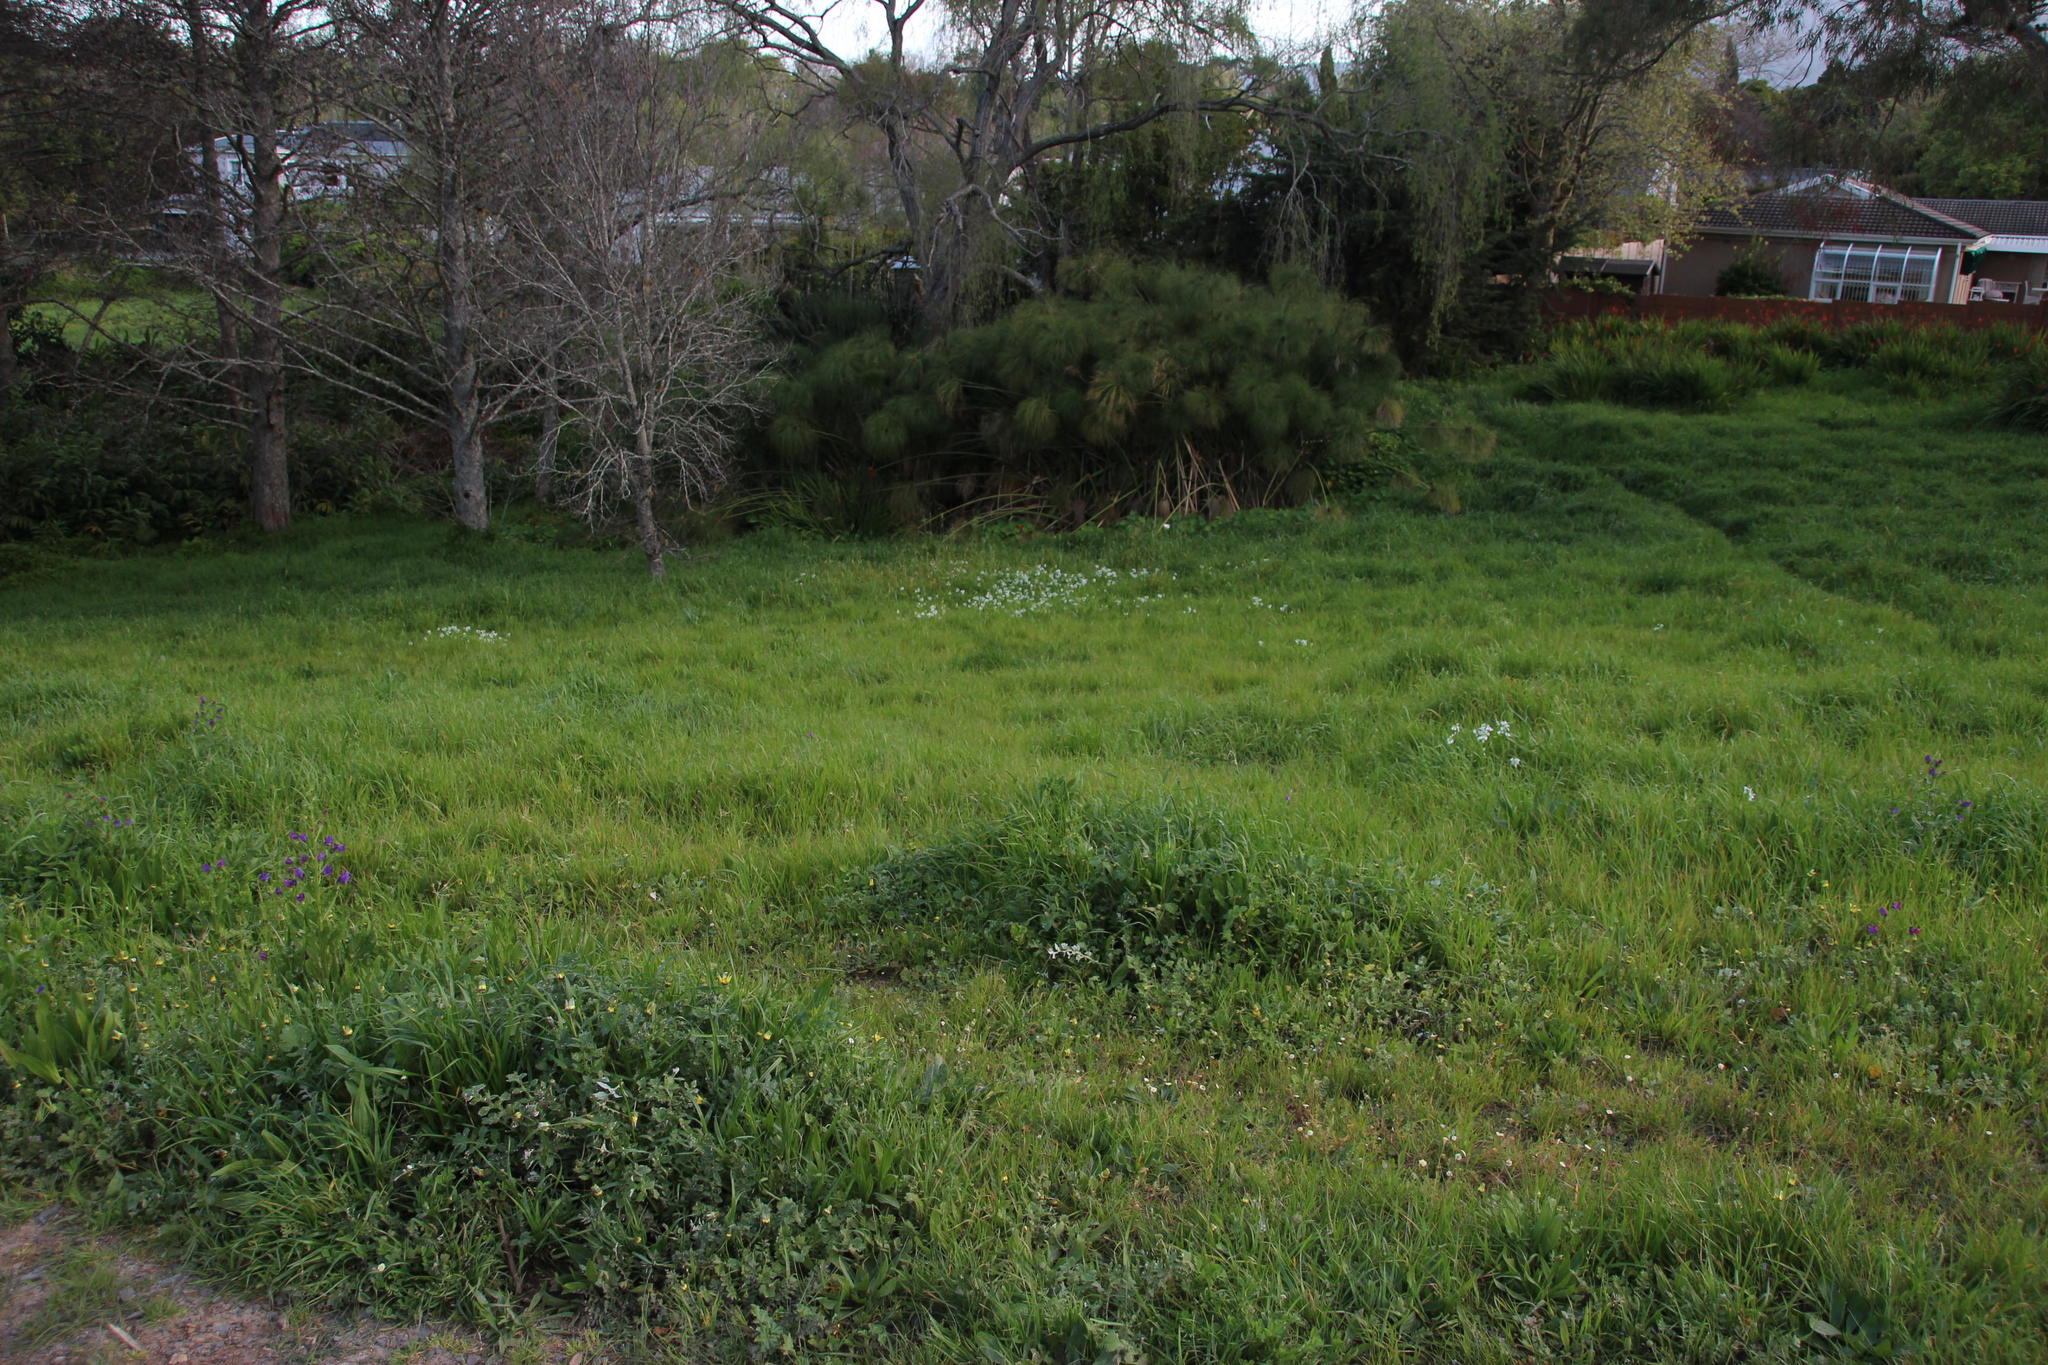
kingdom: Plantae
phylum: Tracheophyta
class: Liliopsida
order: Asparagales
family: Amaryllidaceae
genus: Allium
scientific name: Allium triquetrum
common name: Three-cornered garlic
